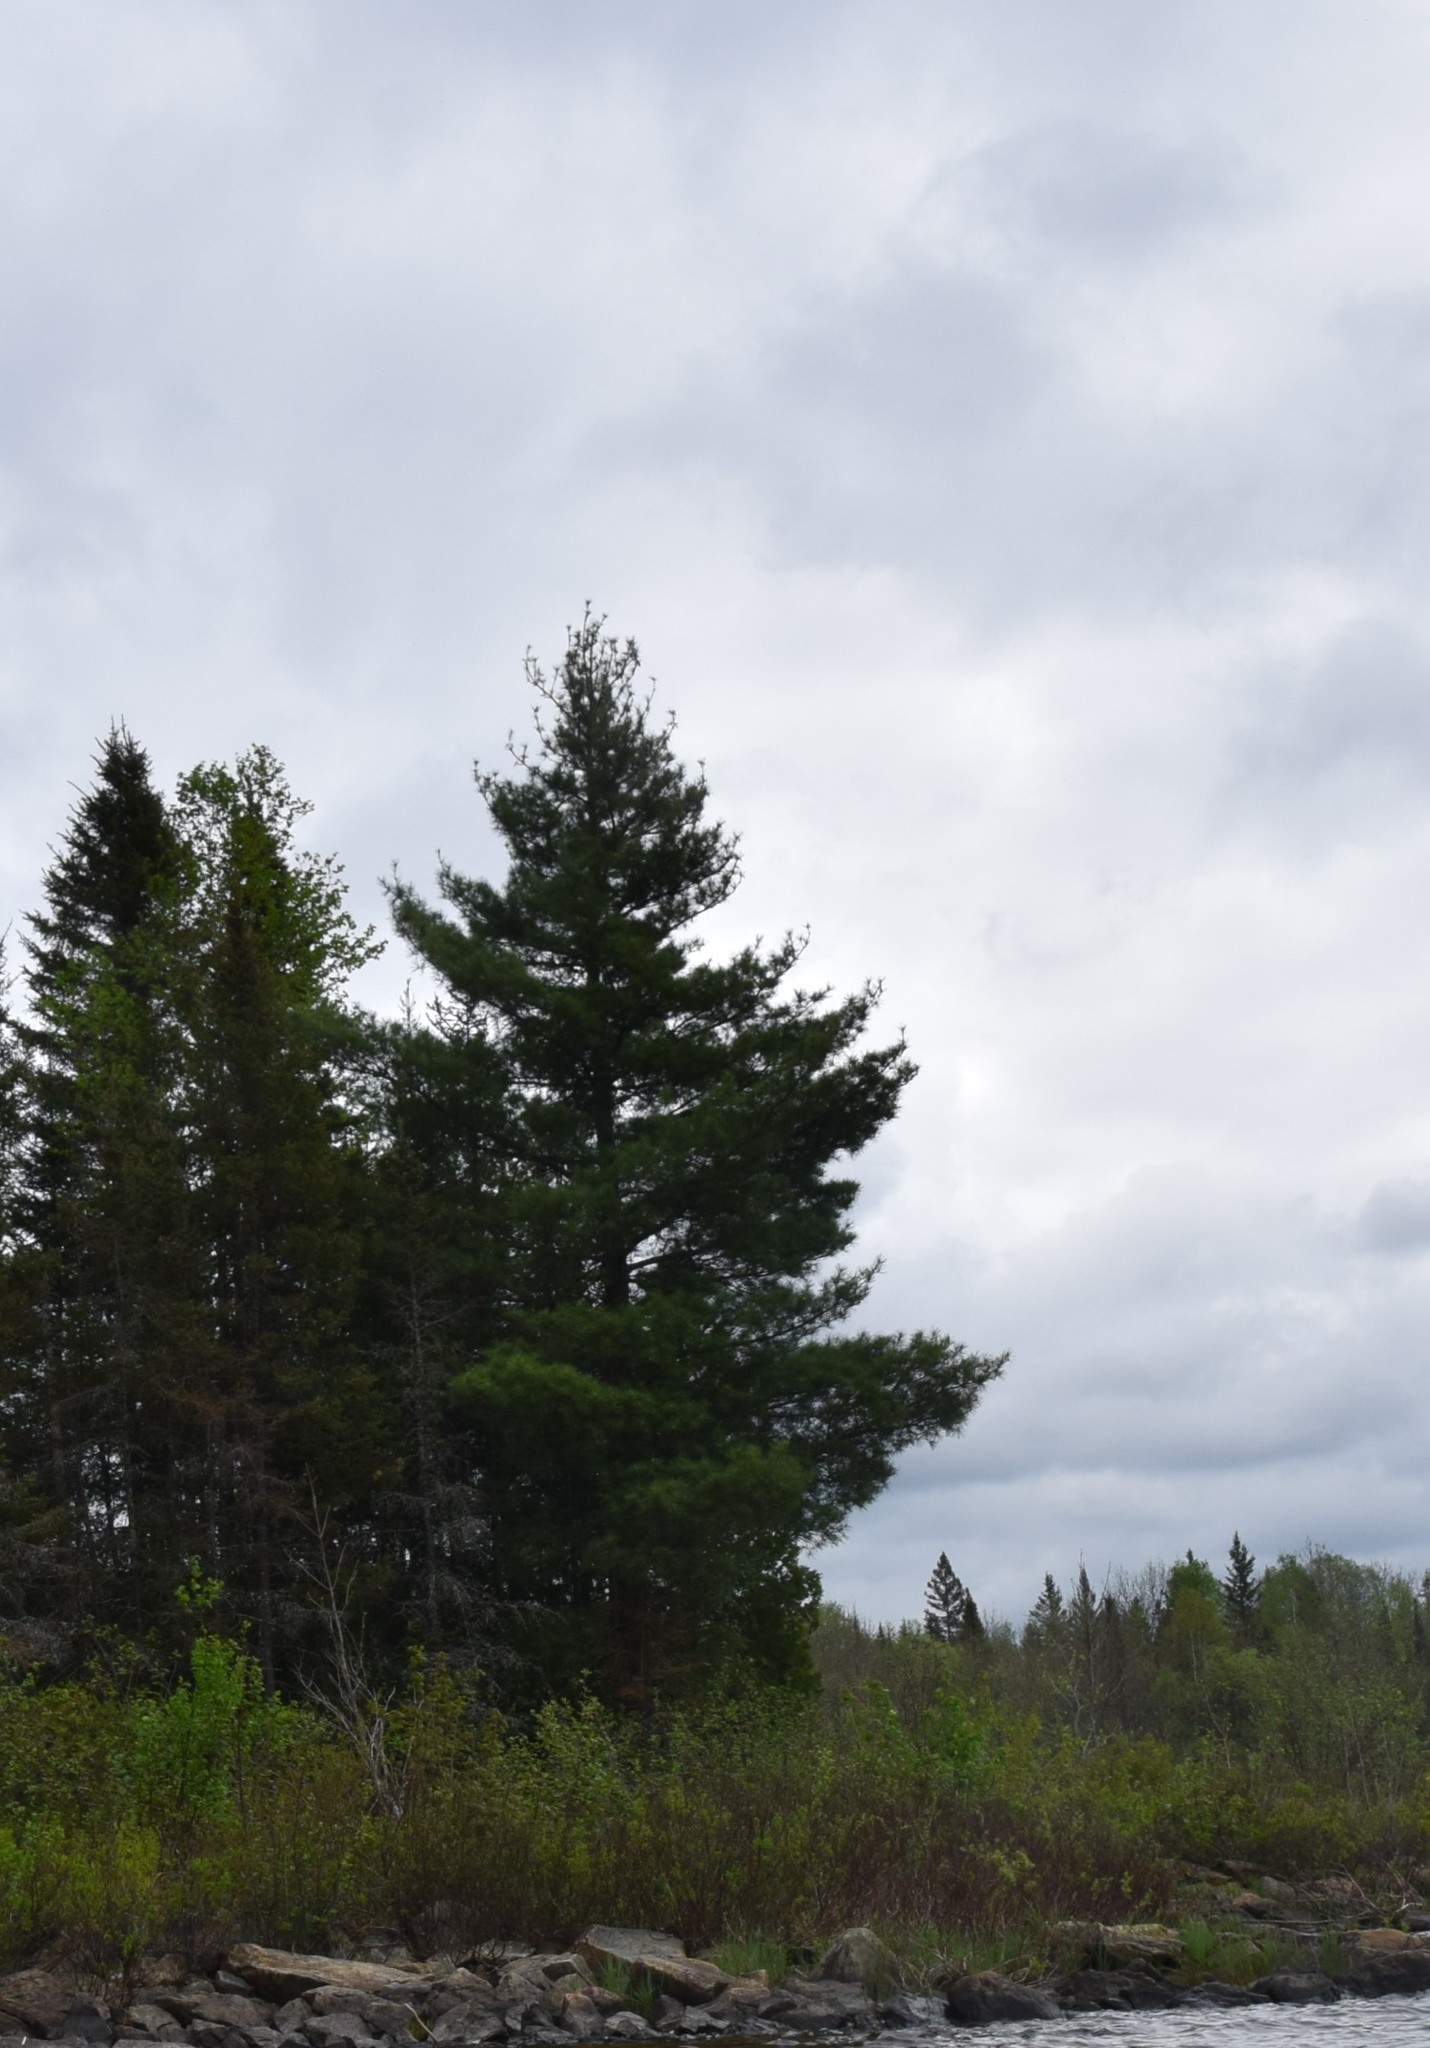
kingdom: Plantae
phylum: Tracheophyta
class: Pinopsida
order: Pinales
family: Pinaceae
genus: Pinus
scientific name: Pinus strobus
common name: Weymouth pine
